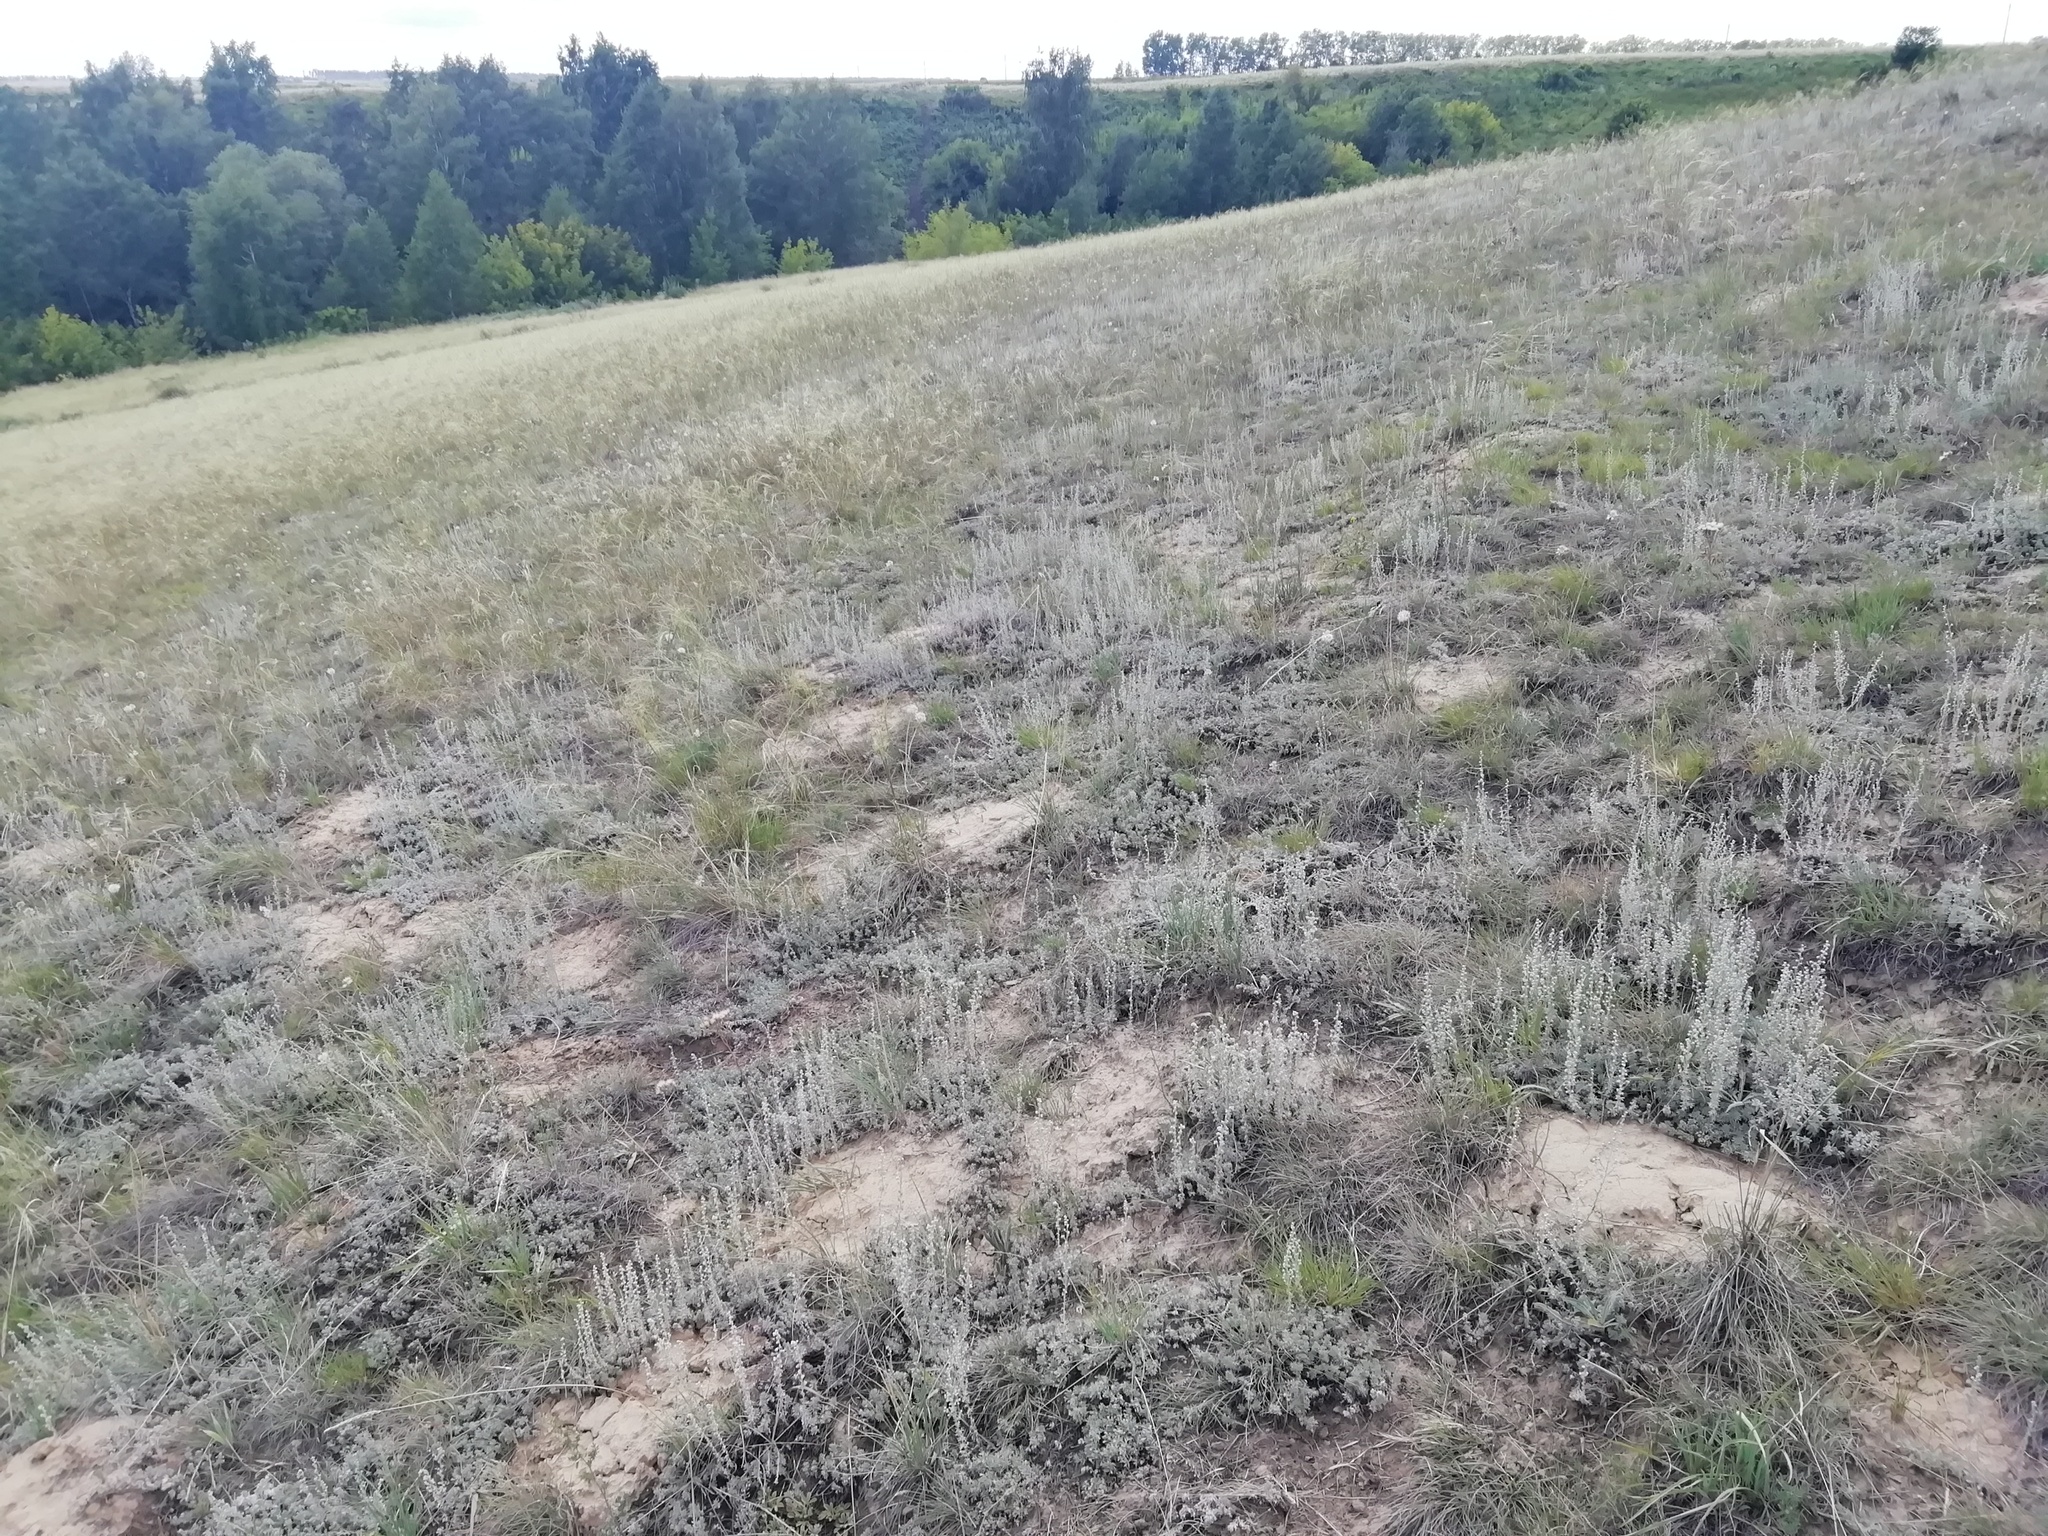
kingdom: Animalia
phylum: Arthropoda
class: Insecta
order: Lepidoptera
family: Nymphalidae
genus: Satyrus
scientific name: Satyrus briseis
